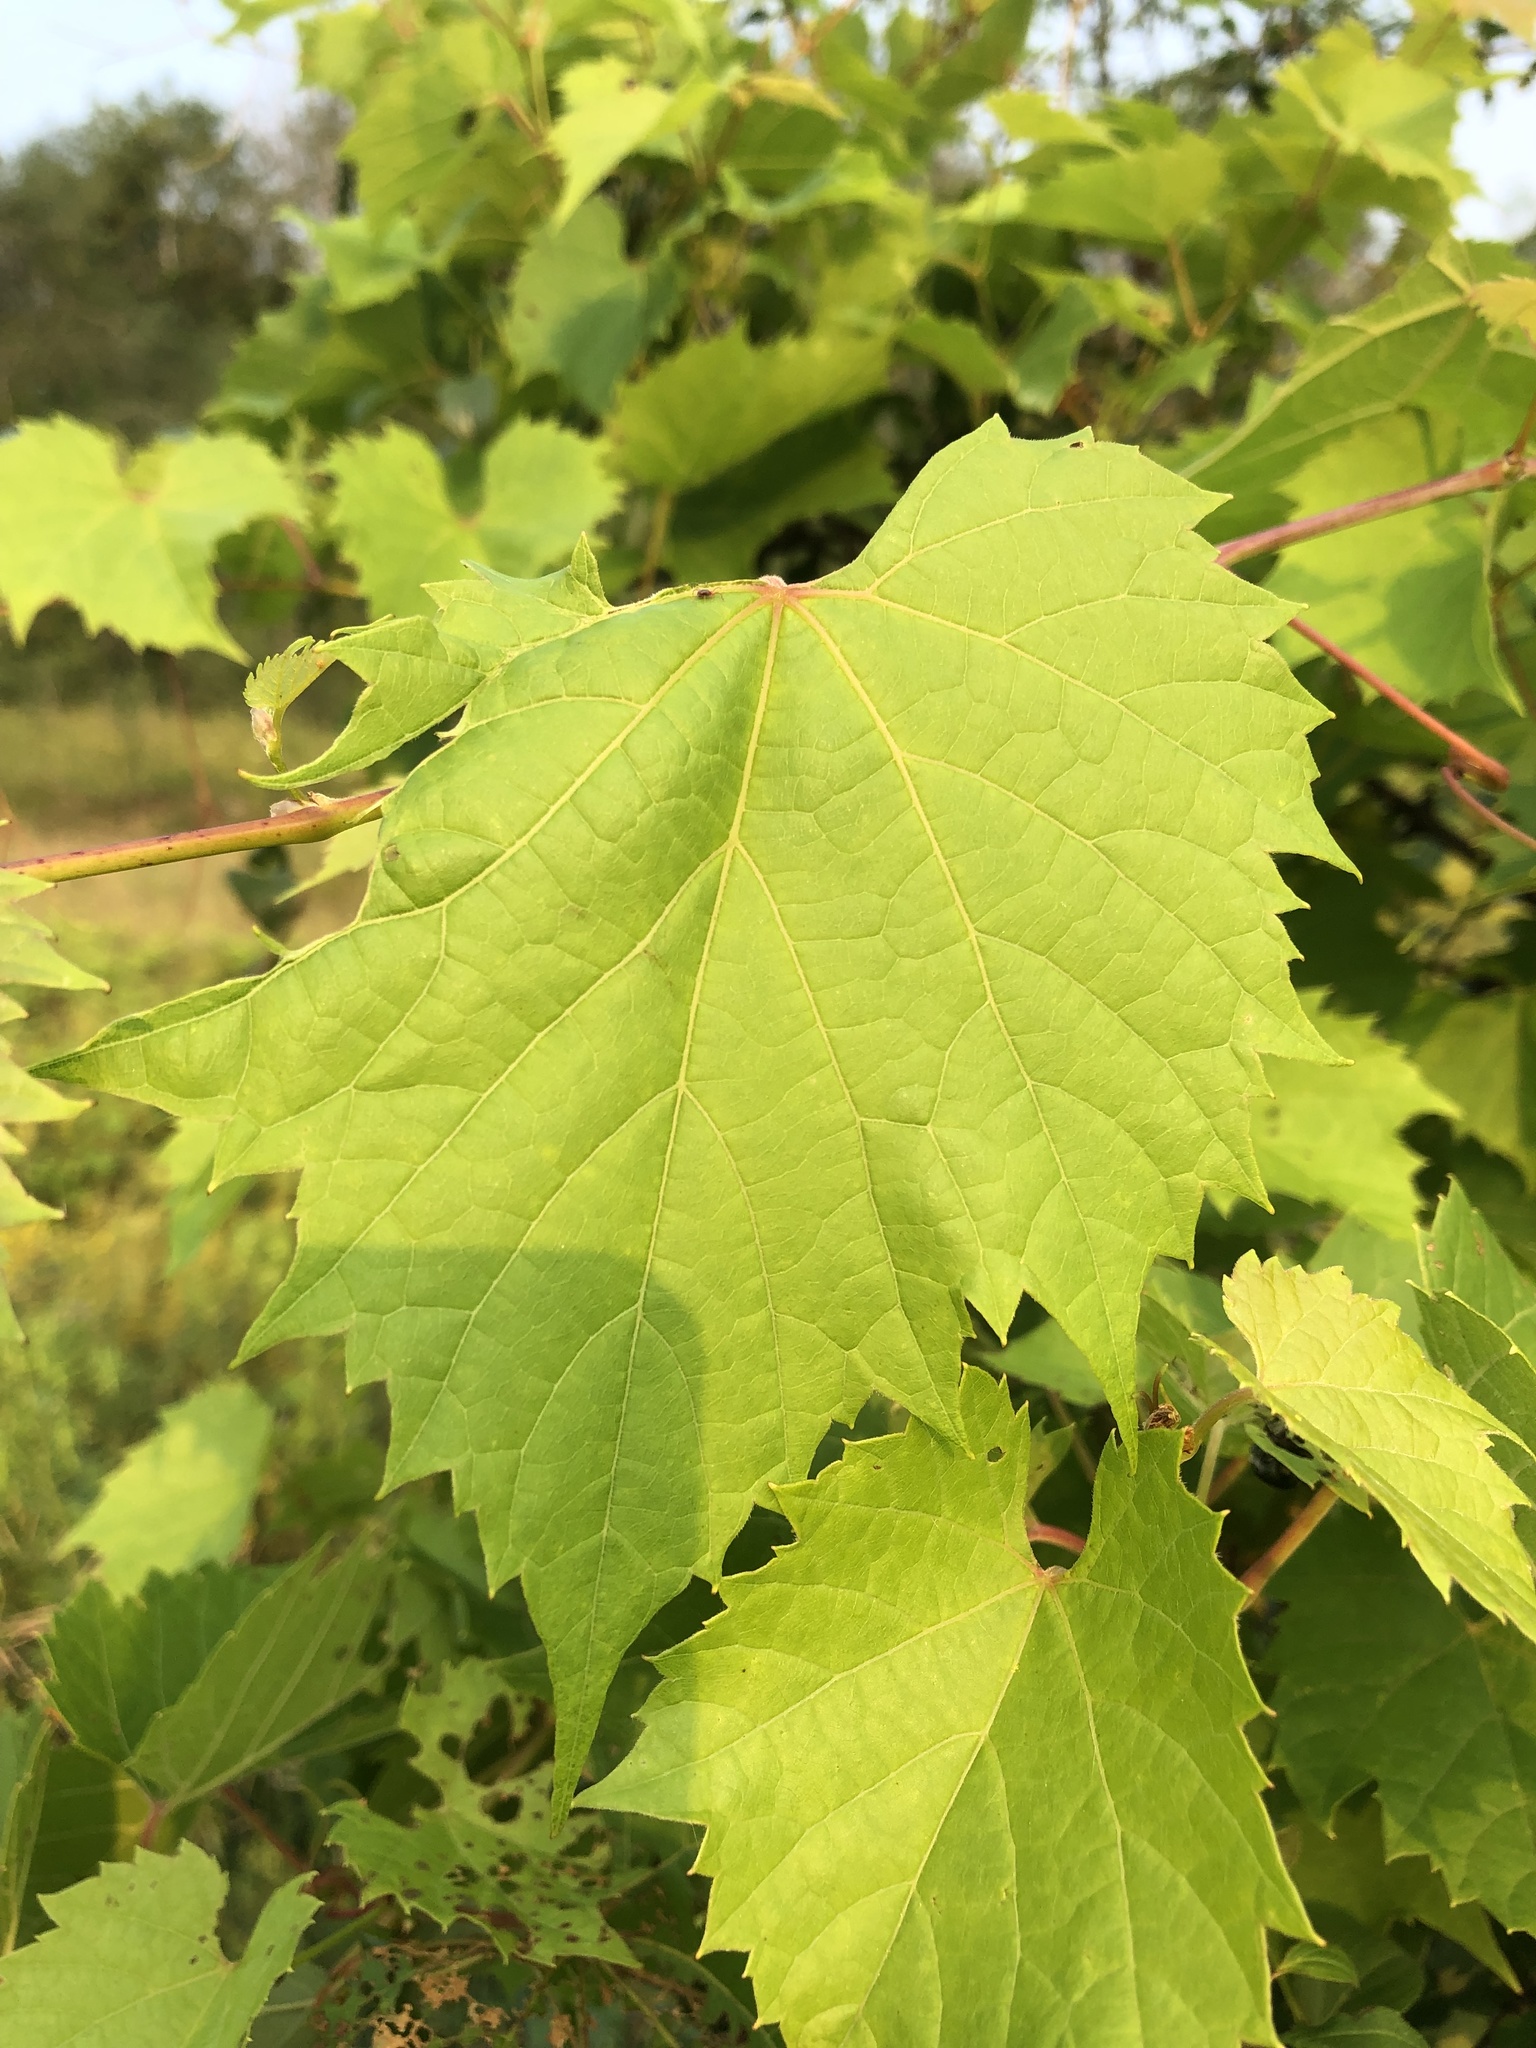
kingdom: Plantae
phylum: Tracheophyta
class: Magnoliopsida
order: Vitales
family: Vitaceae
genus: Vitis
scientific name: Vitis riparia
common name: Frost grape
